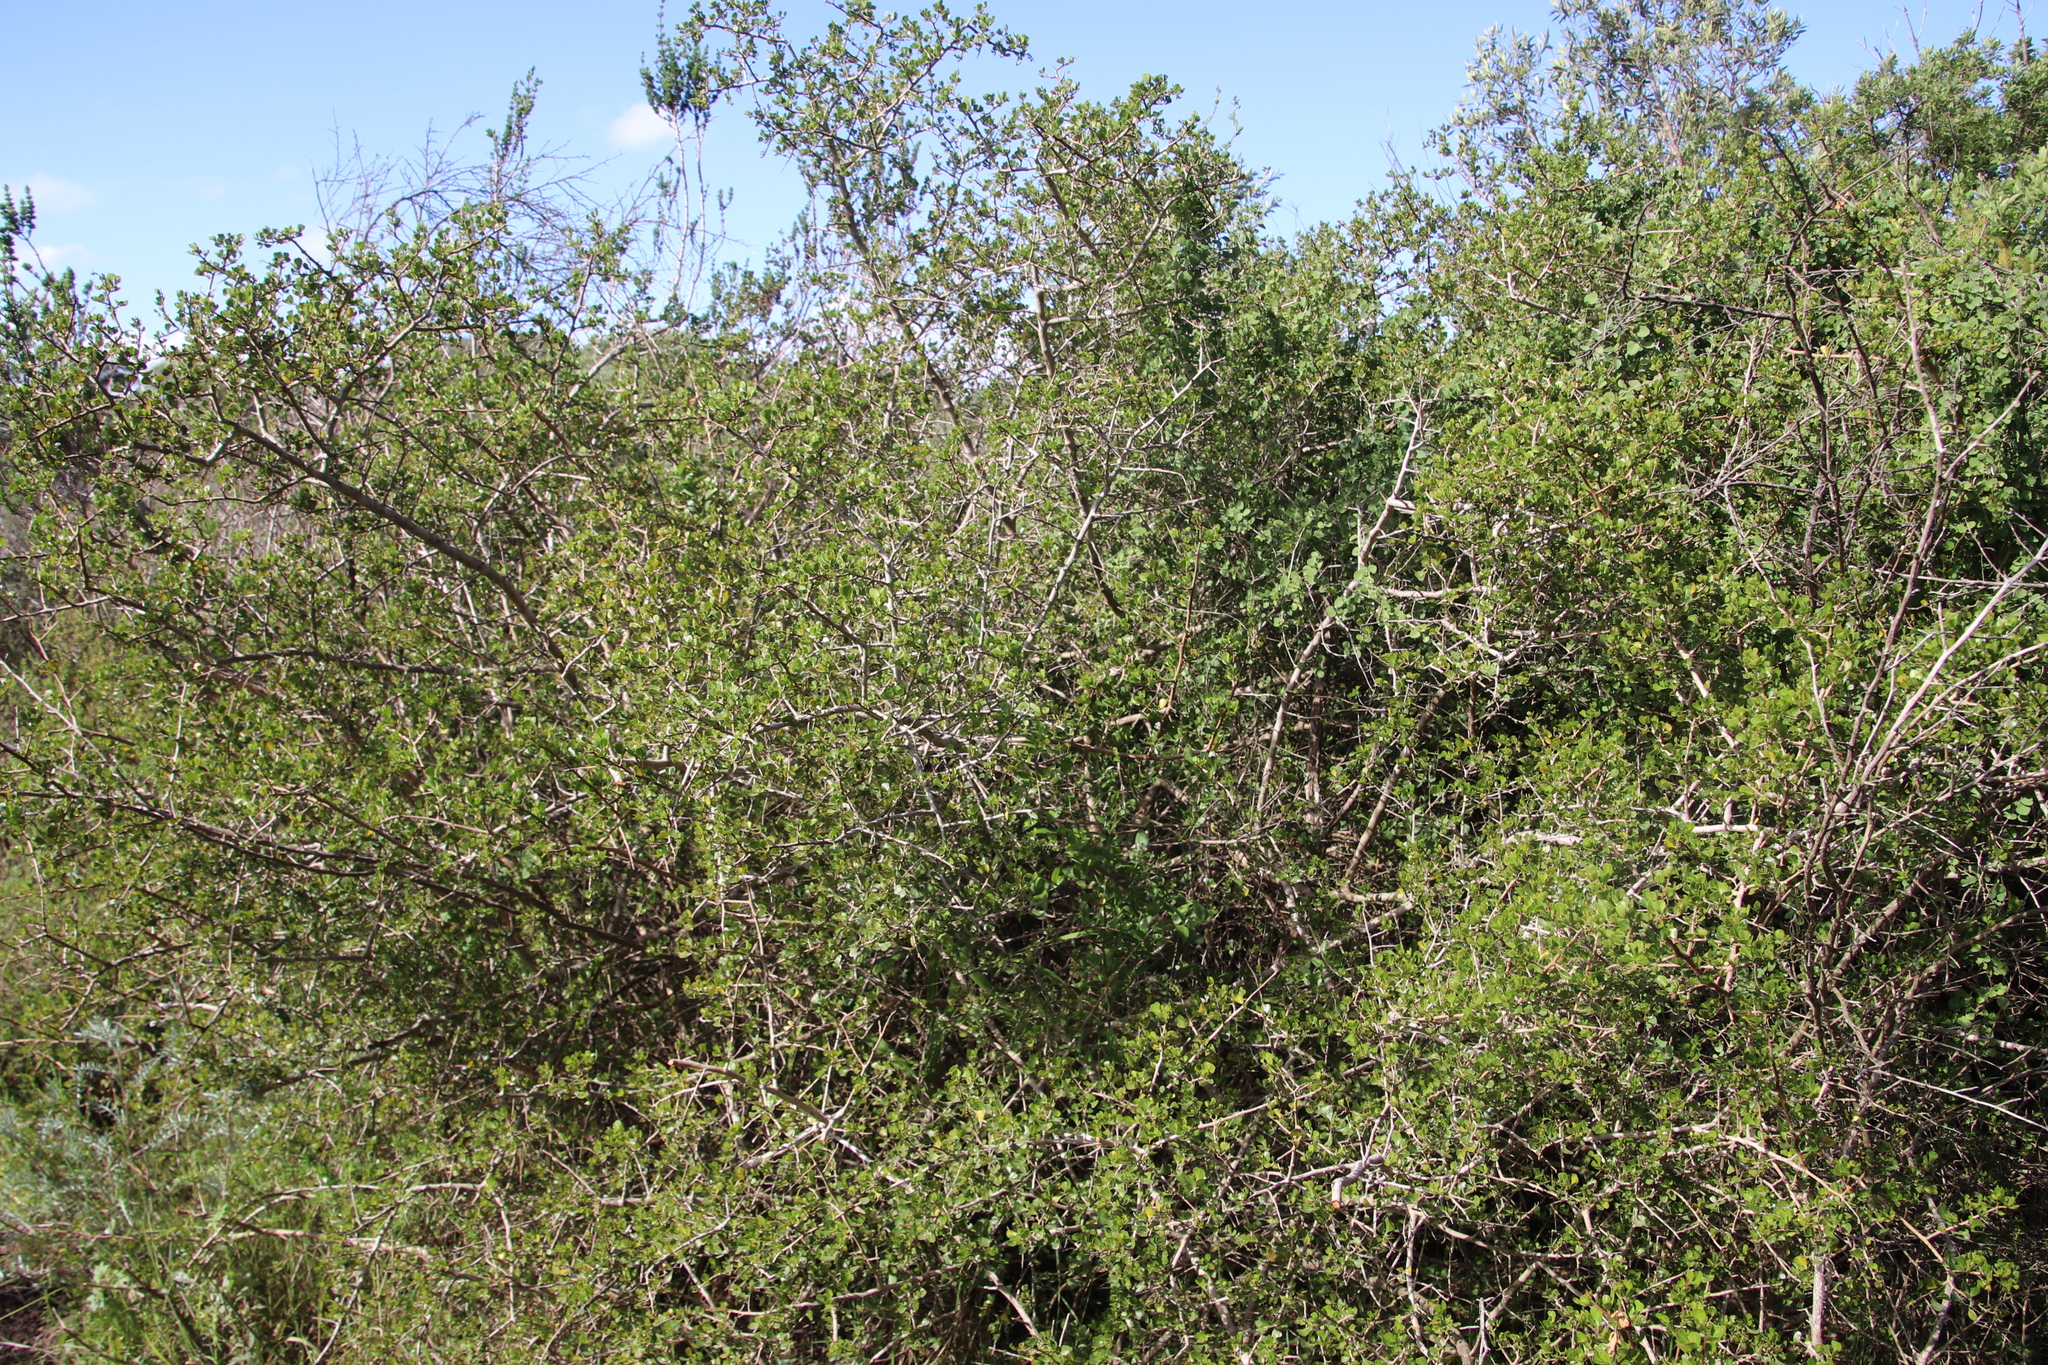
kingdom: Plantae
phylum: Tracheophyta
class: Magnoliopsida
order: Sapindales
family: Anacardiaceae
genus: Searsia
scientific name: Searsia glauca
